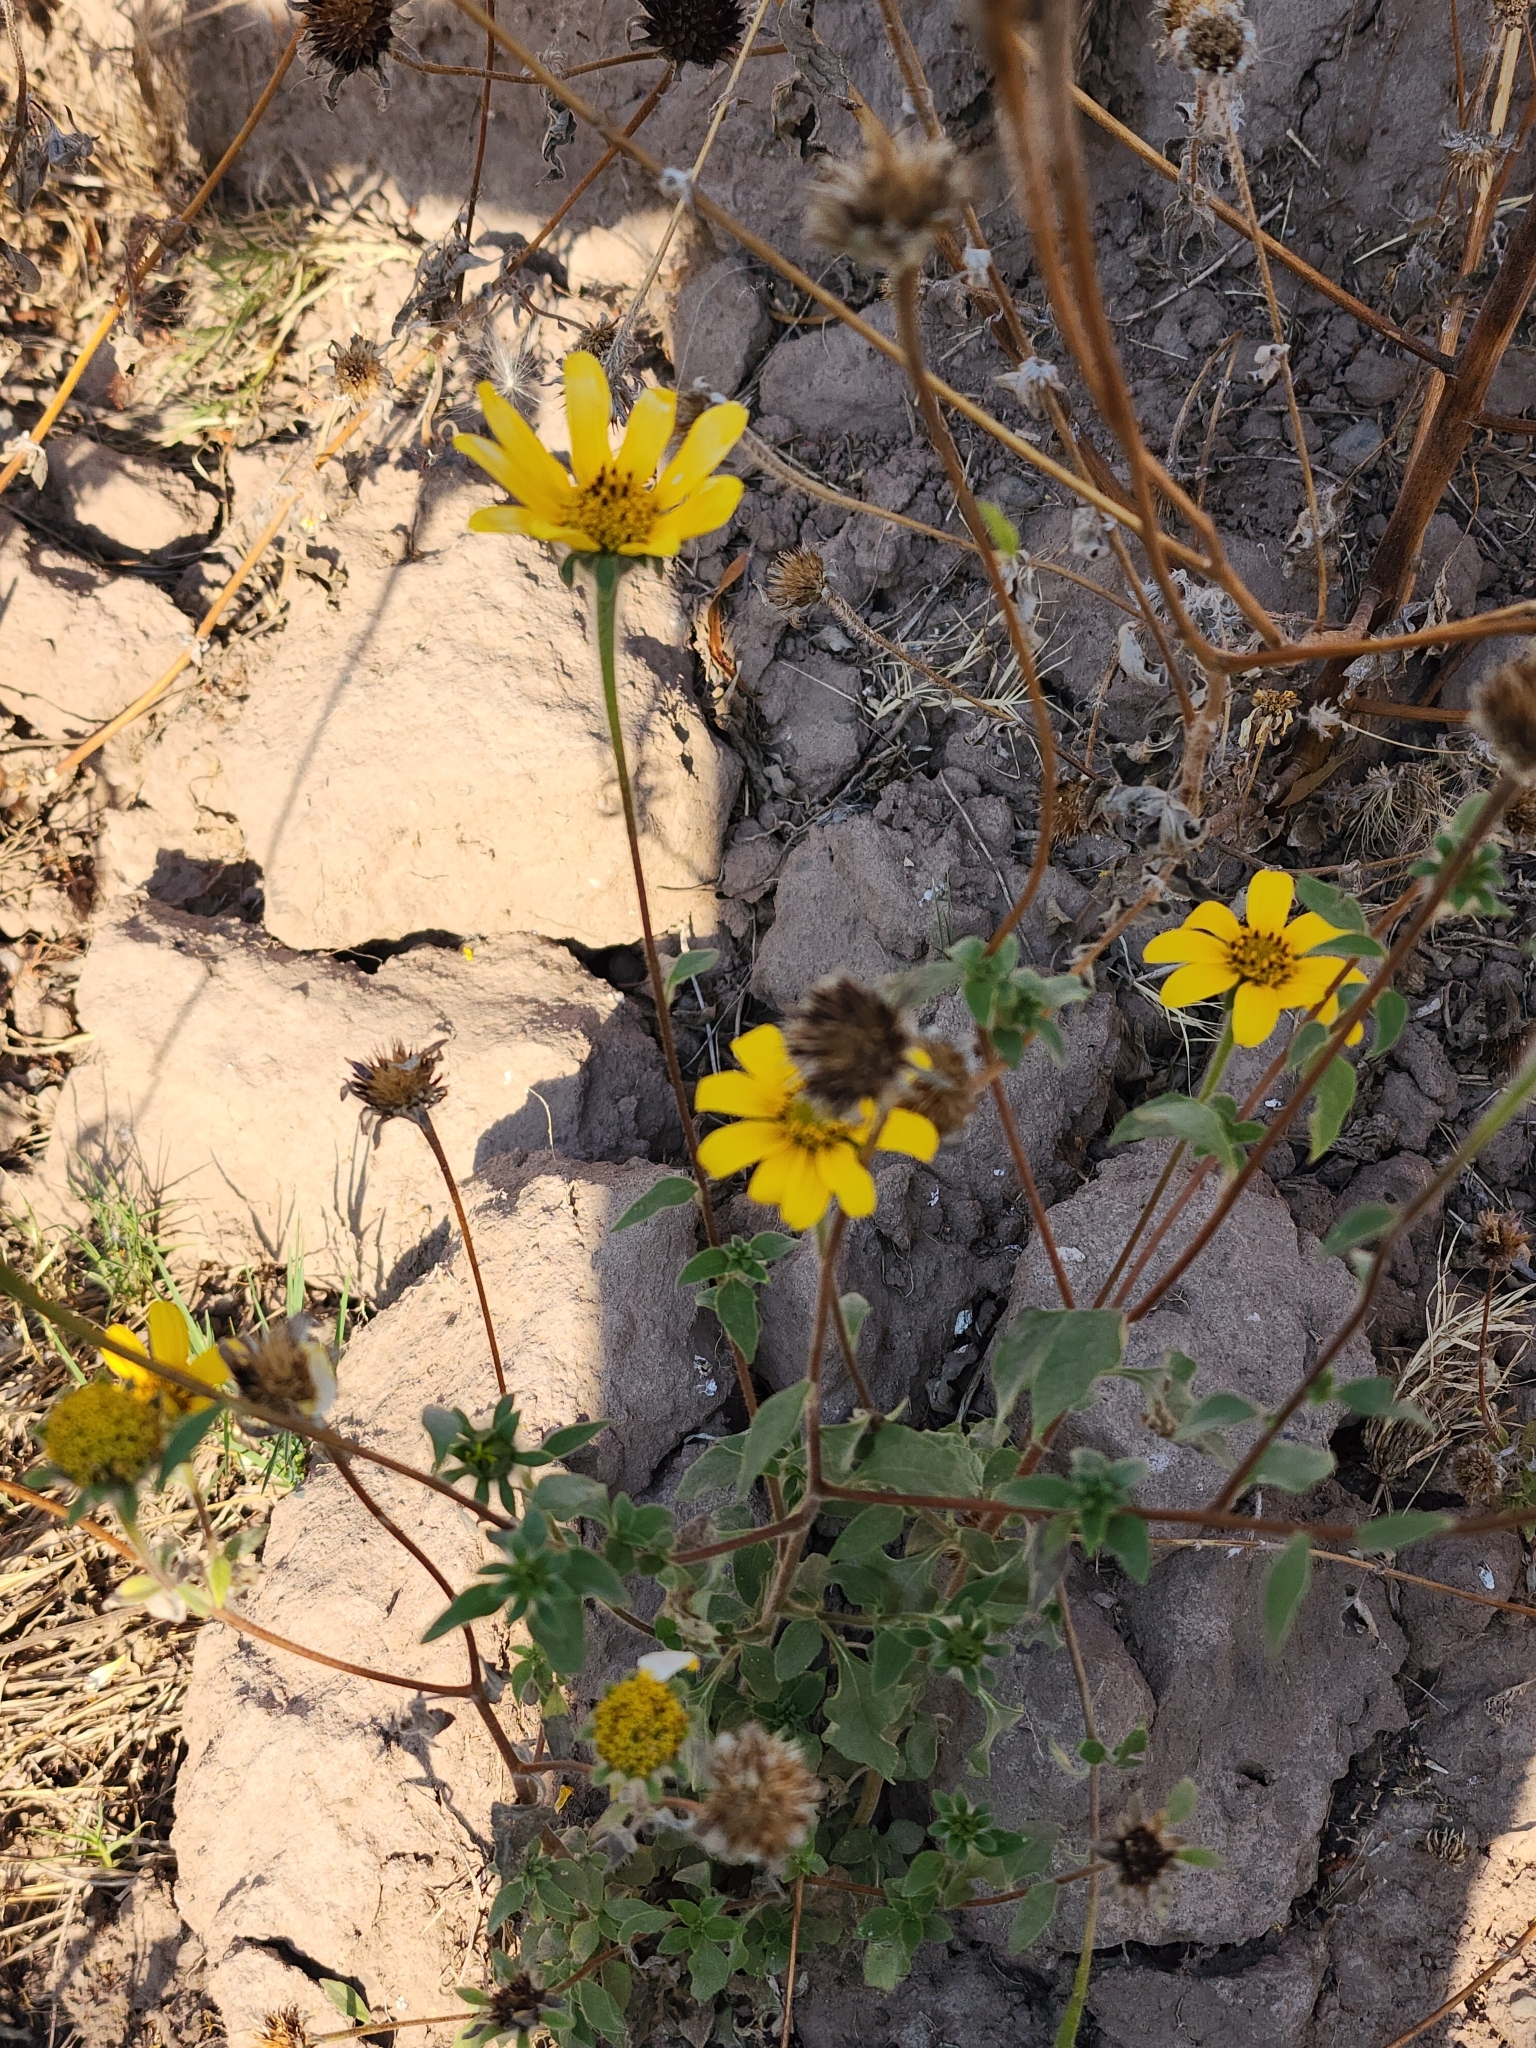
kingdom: Plantae
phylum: Tracheophyta
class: Magnoliopsida
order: Asterales
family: Asteraceae
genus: Tithonia
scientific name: Tithonia tubaeformis
